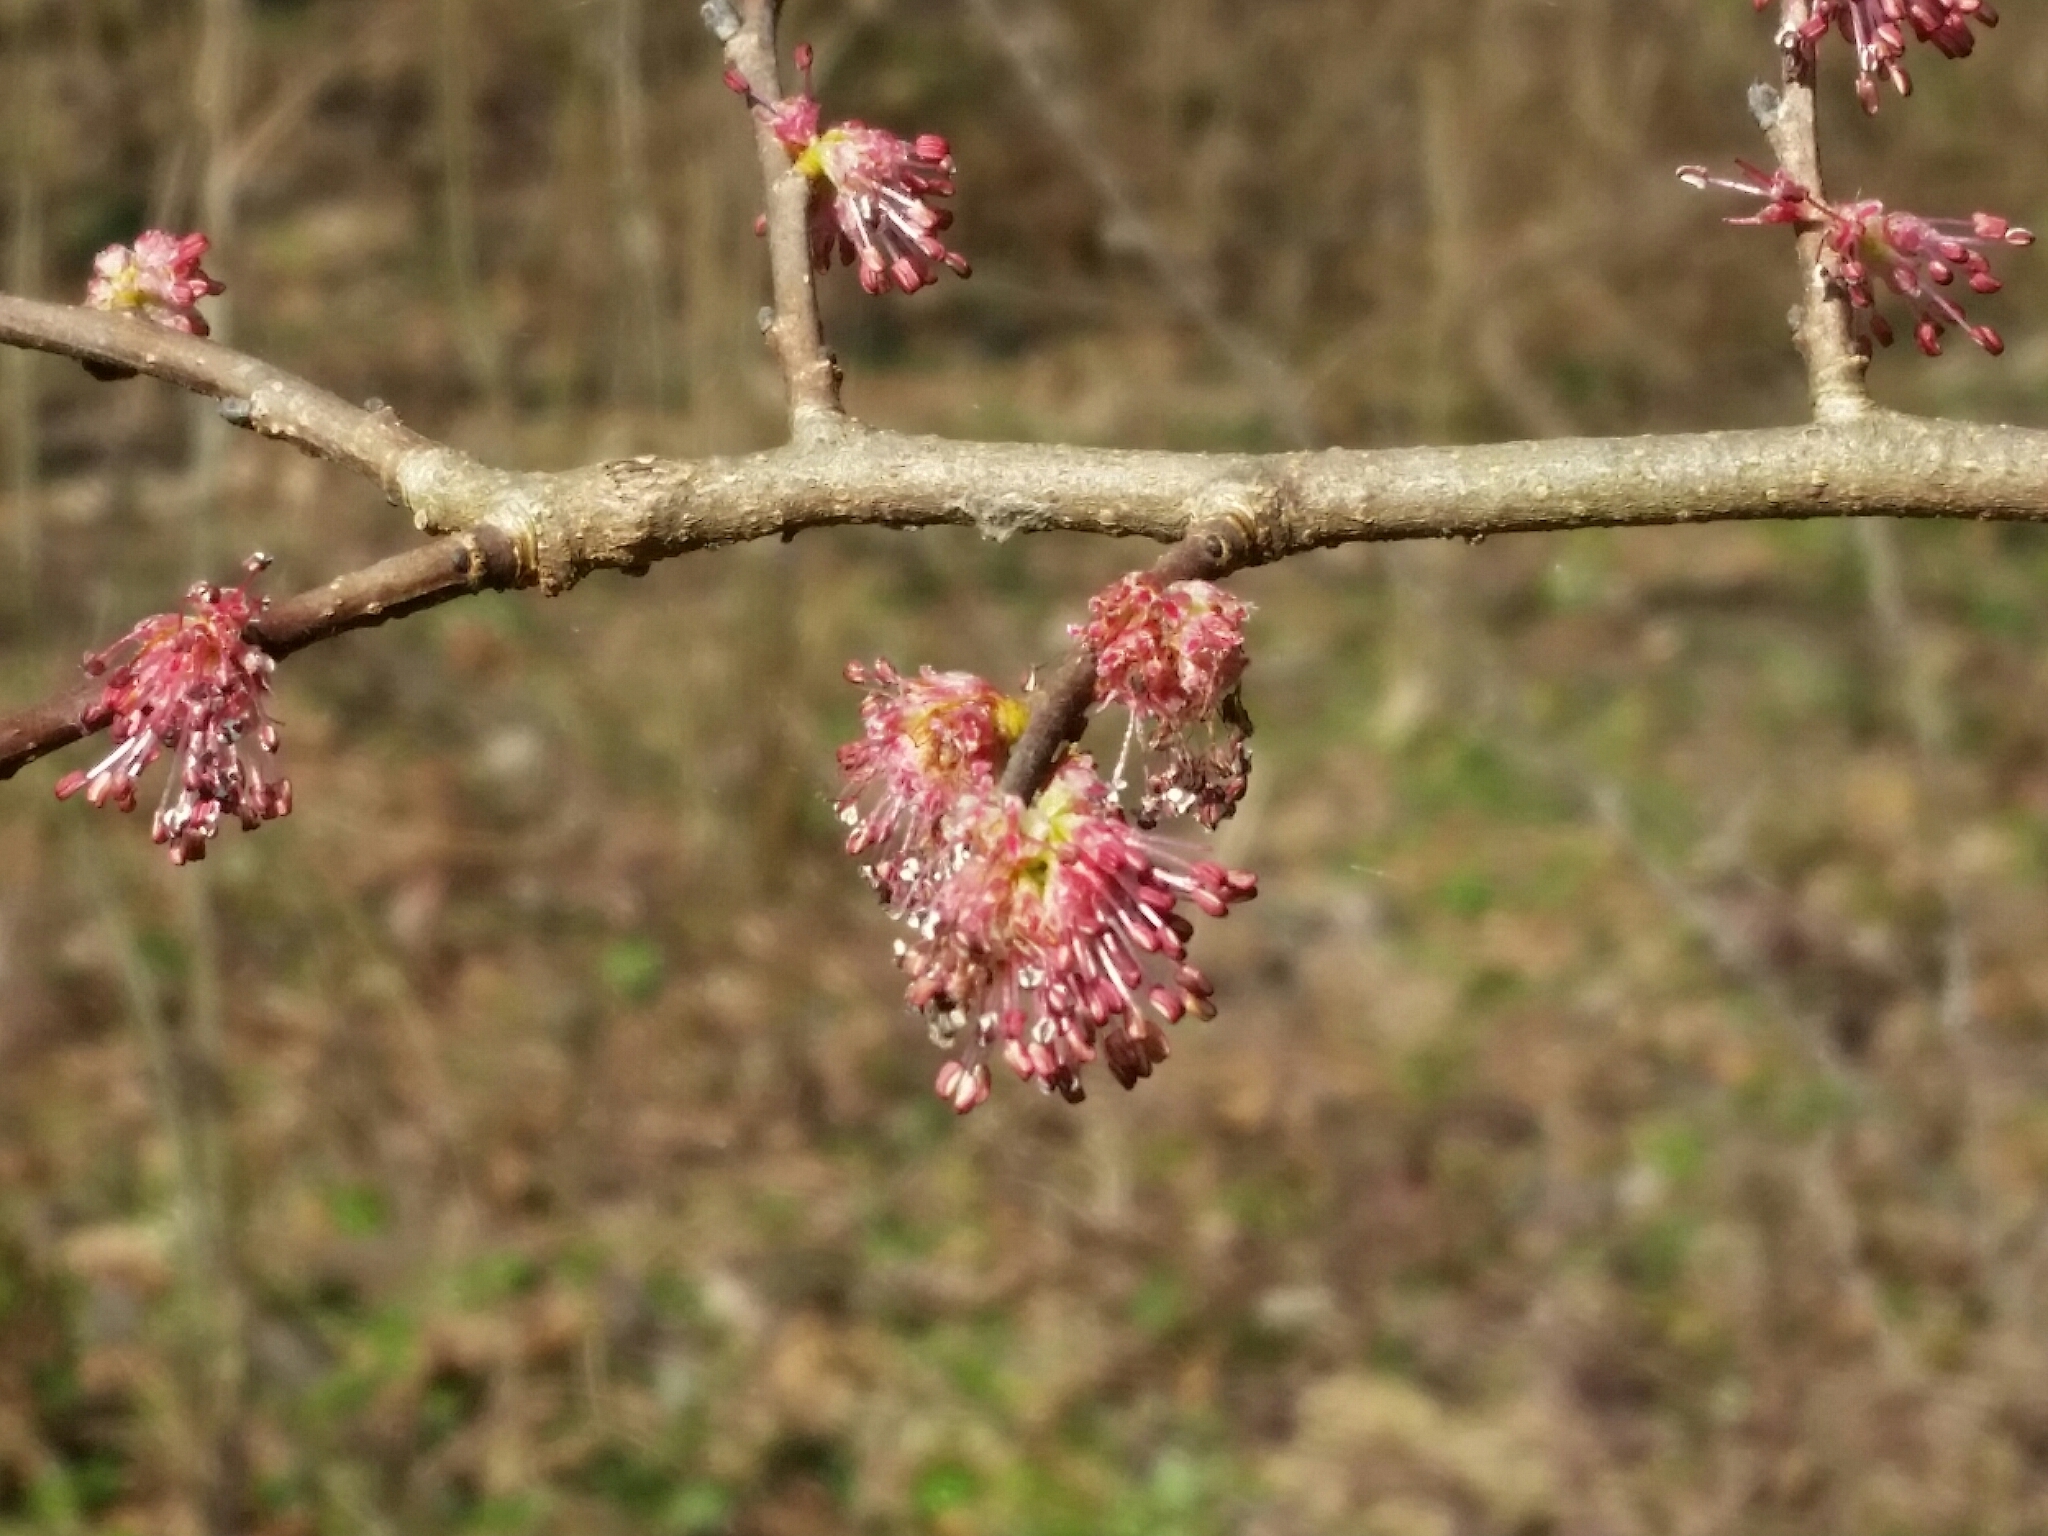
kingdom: Plantae
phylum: Tracheophyta
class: Magnoliopsida
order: Rosales
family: Ulmaceae
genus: Ulmus
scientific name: Ulmus minor
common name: Small-leaved elm
